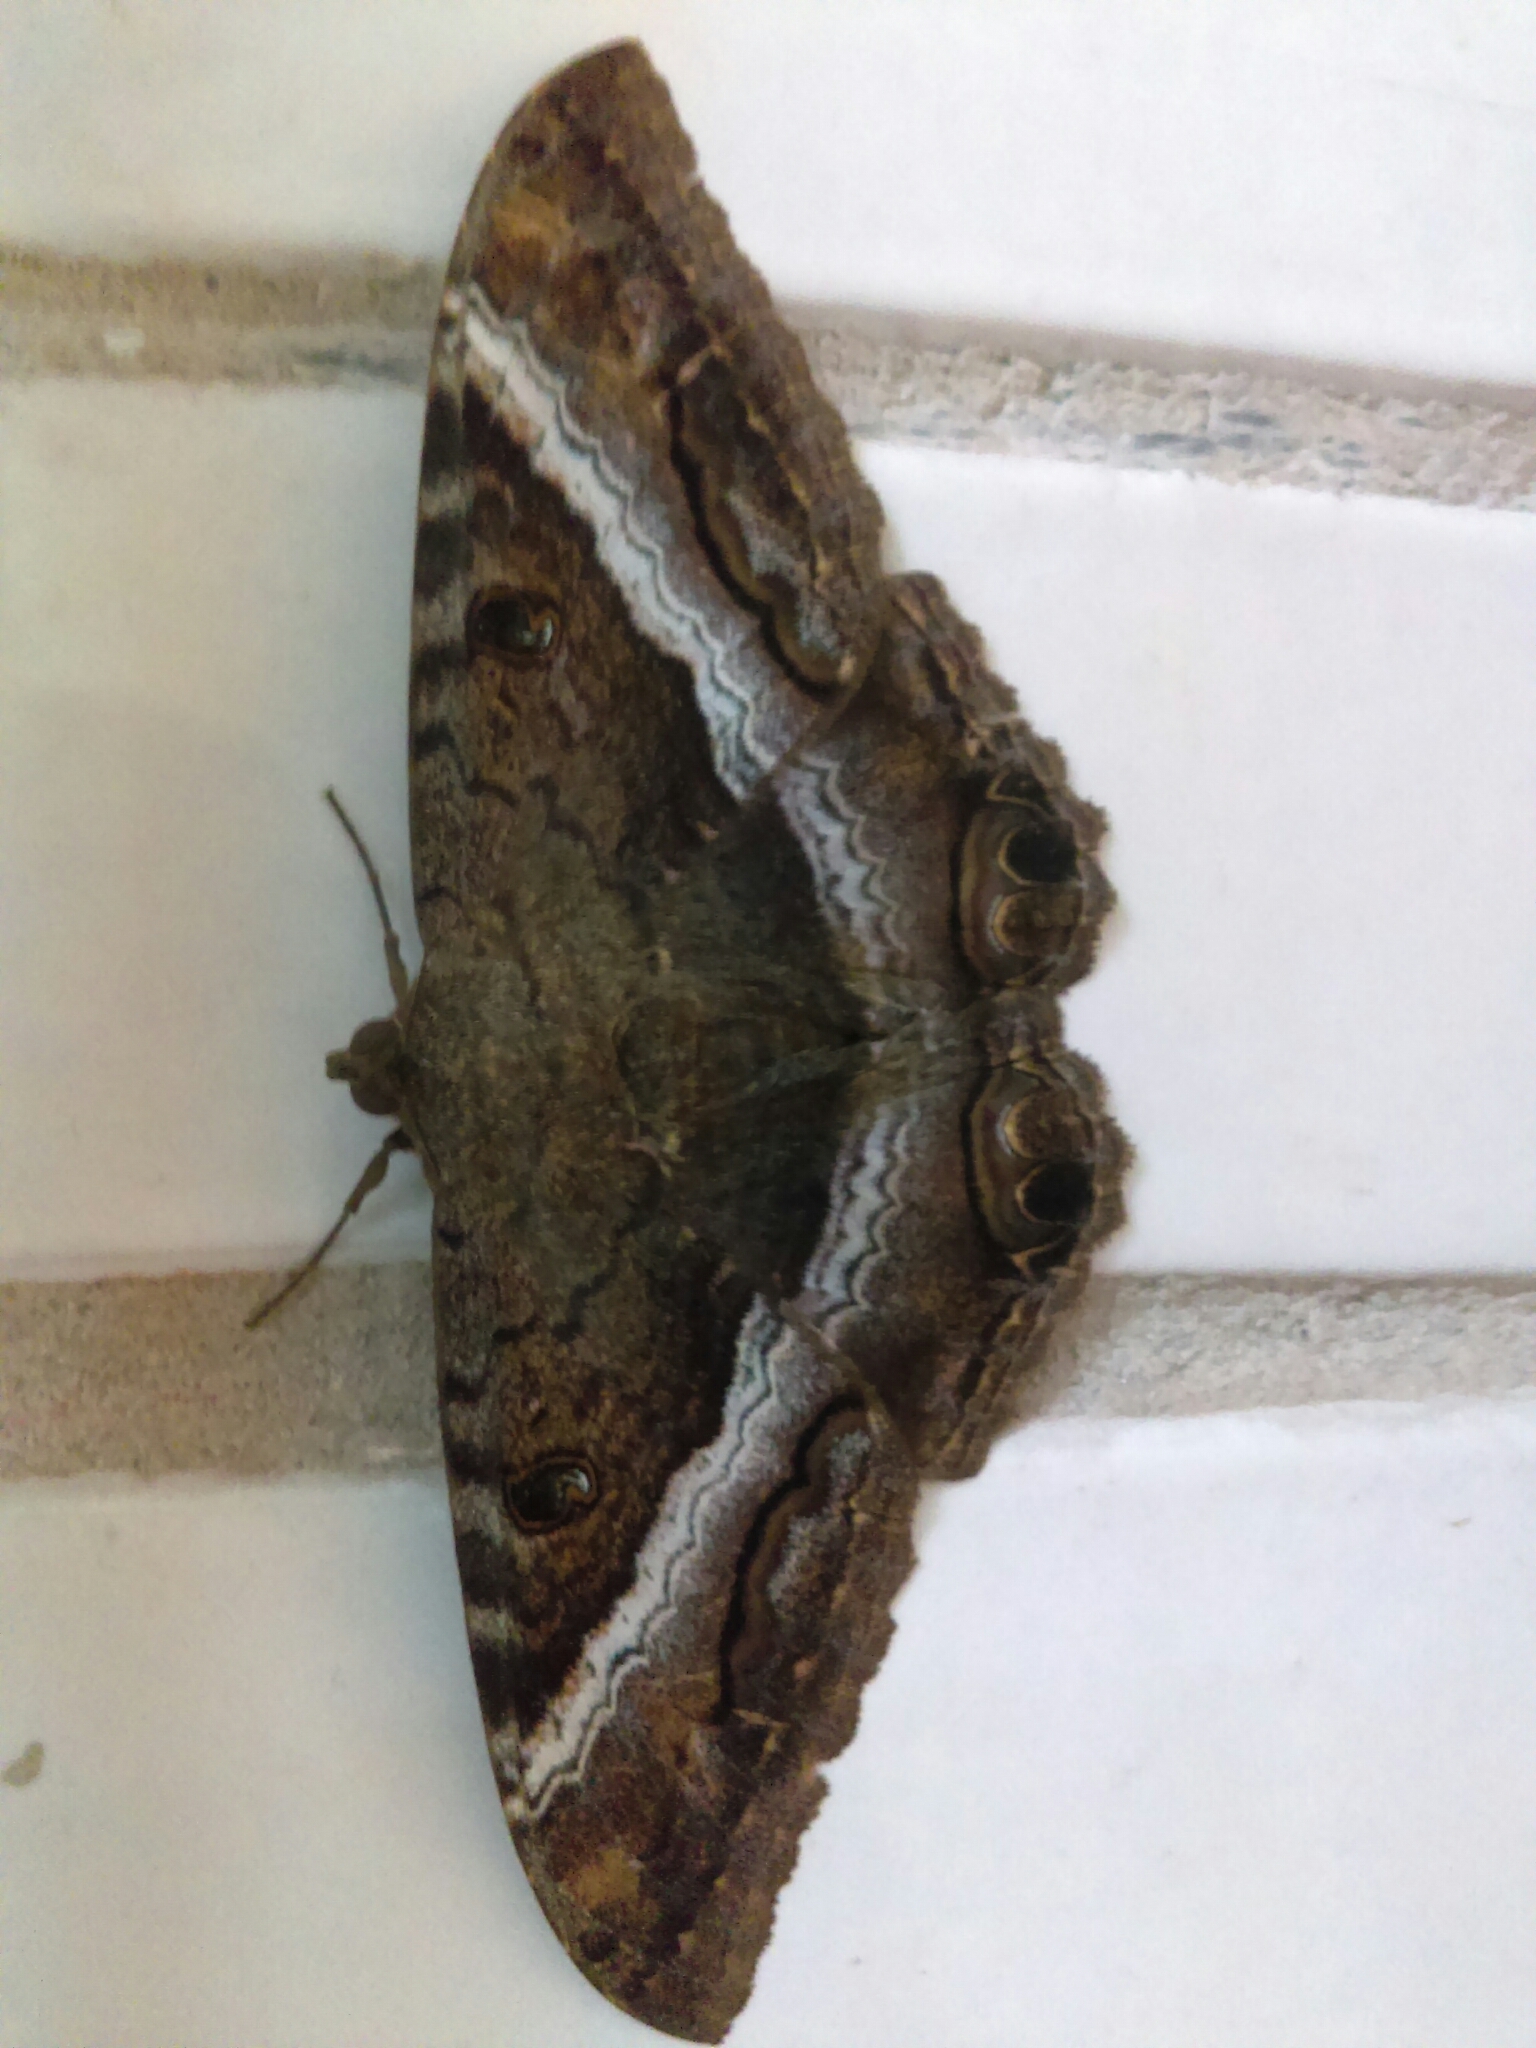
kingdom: Animalia
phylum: Arthropoda
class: Insecta
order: Lepidoptera
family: Erebidae
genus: Ascalapha
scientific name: Ascalapha odorata
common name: Black witch
